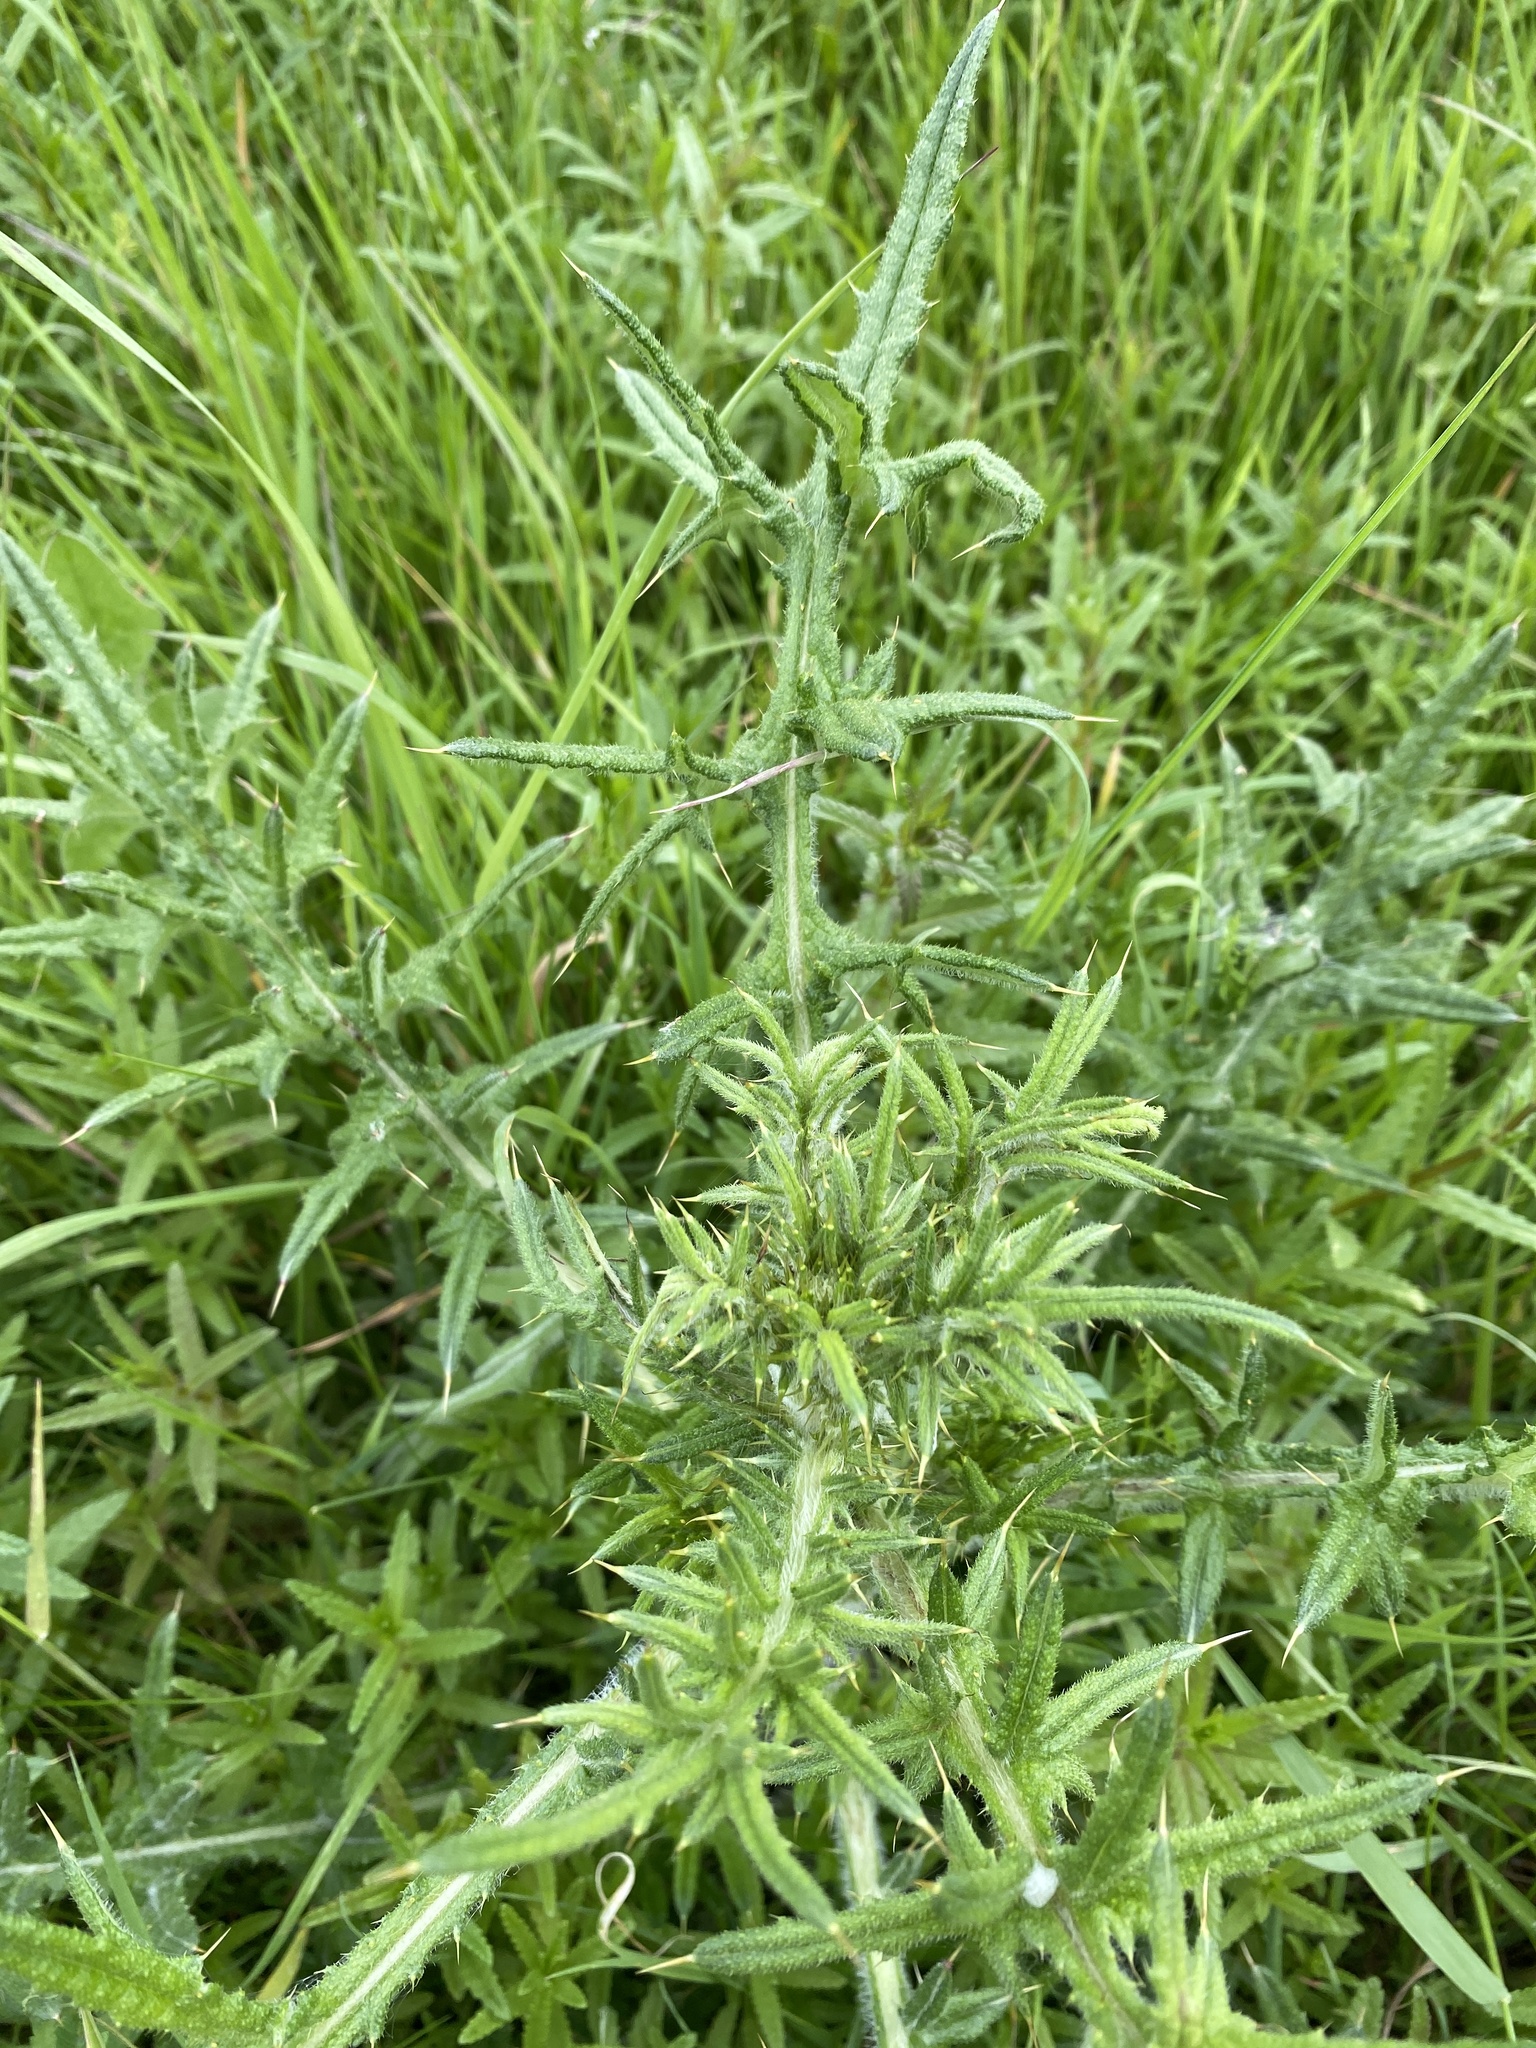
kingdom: Plantae
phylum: Tracheophyta
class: Magnoliopsida
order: Asterales
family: Asteraceae
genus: Cirsium
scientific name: Cirsium vulgare
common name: Bull thistle
